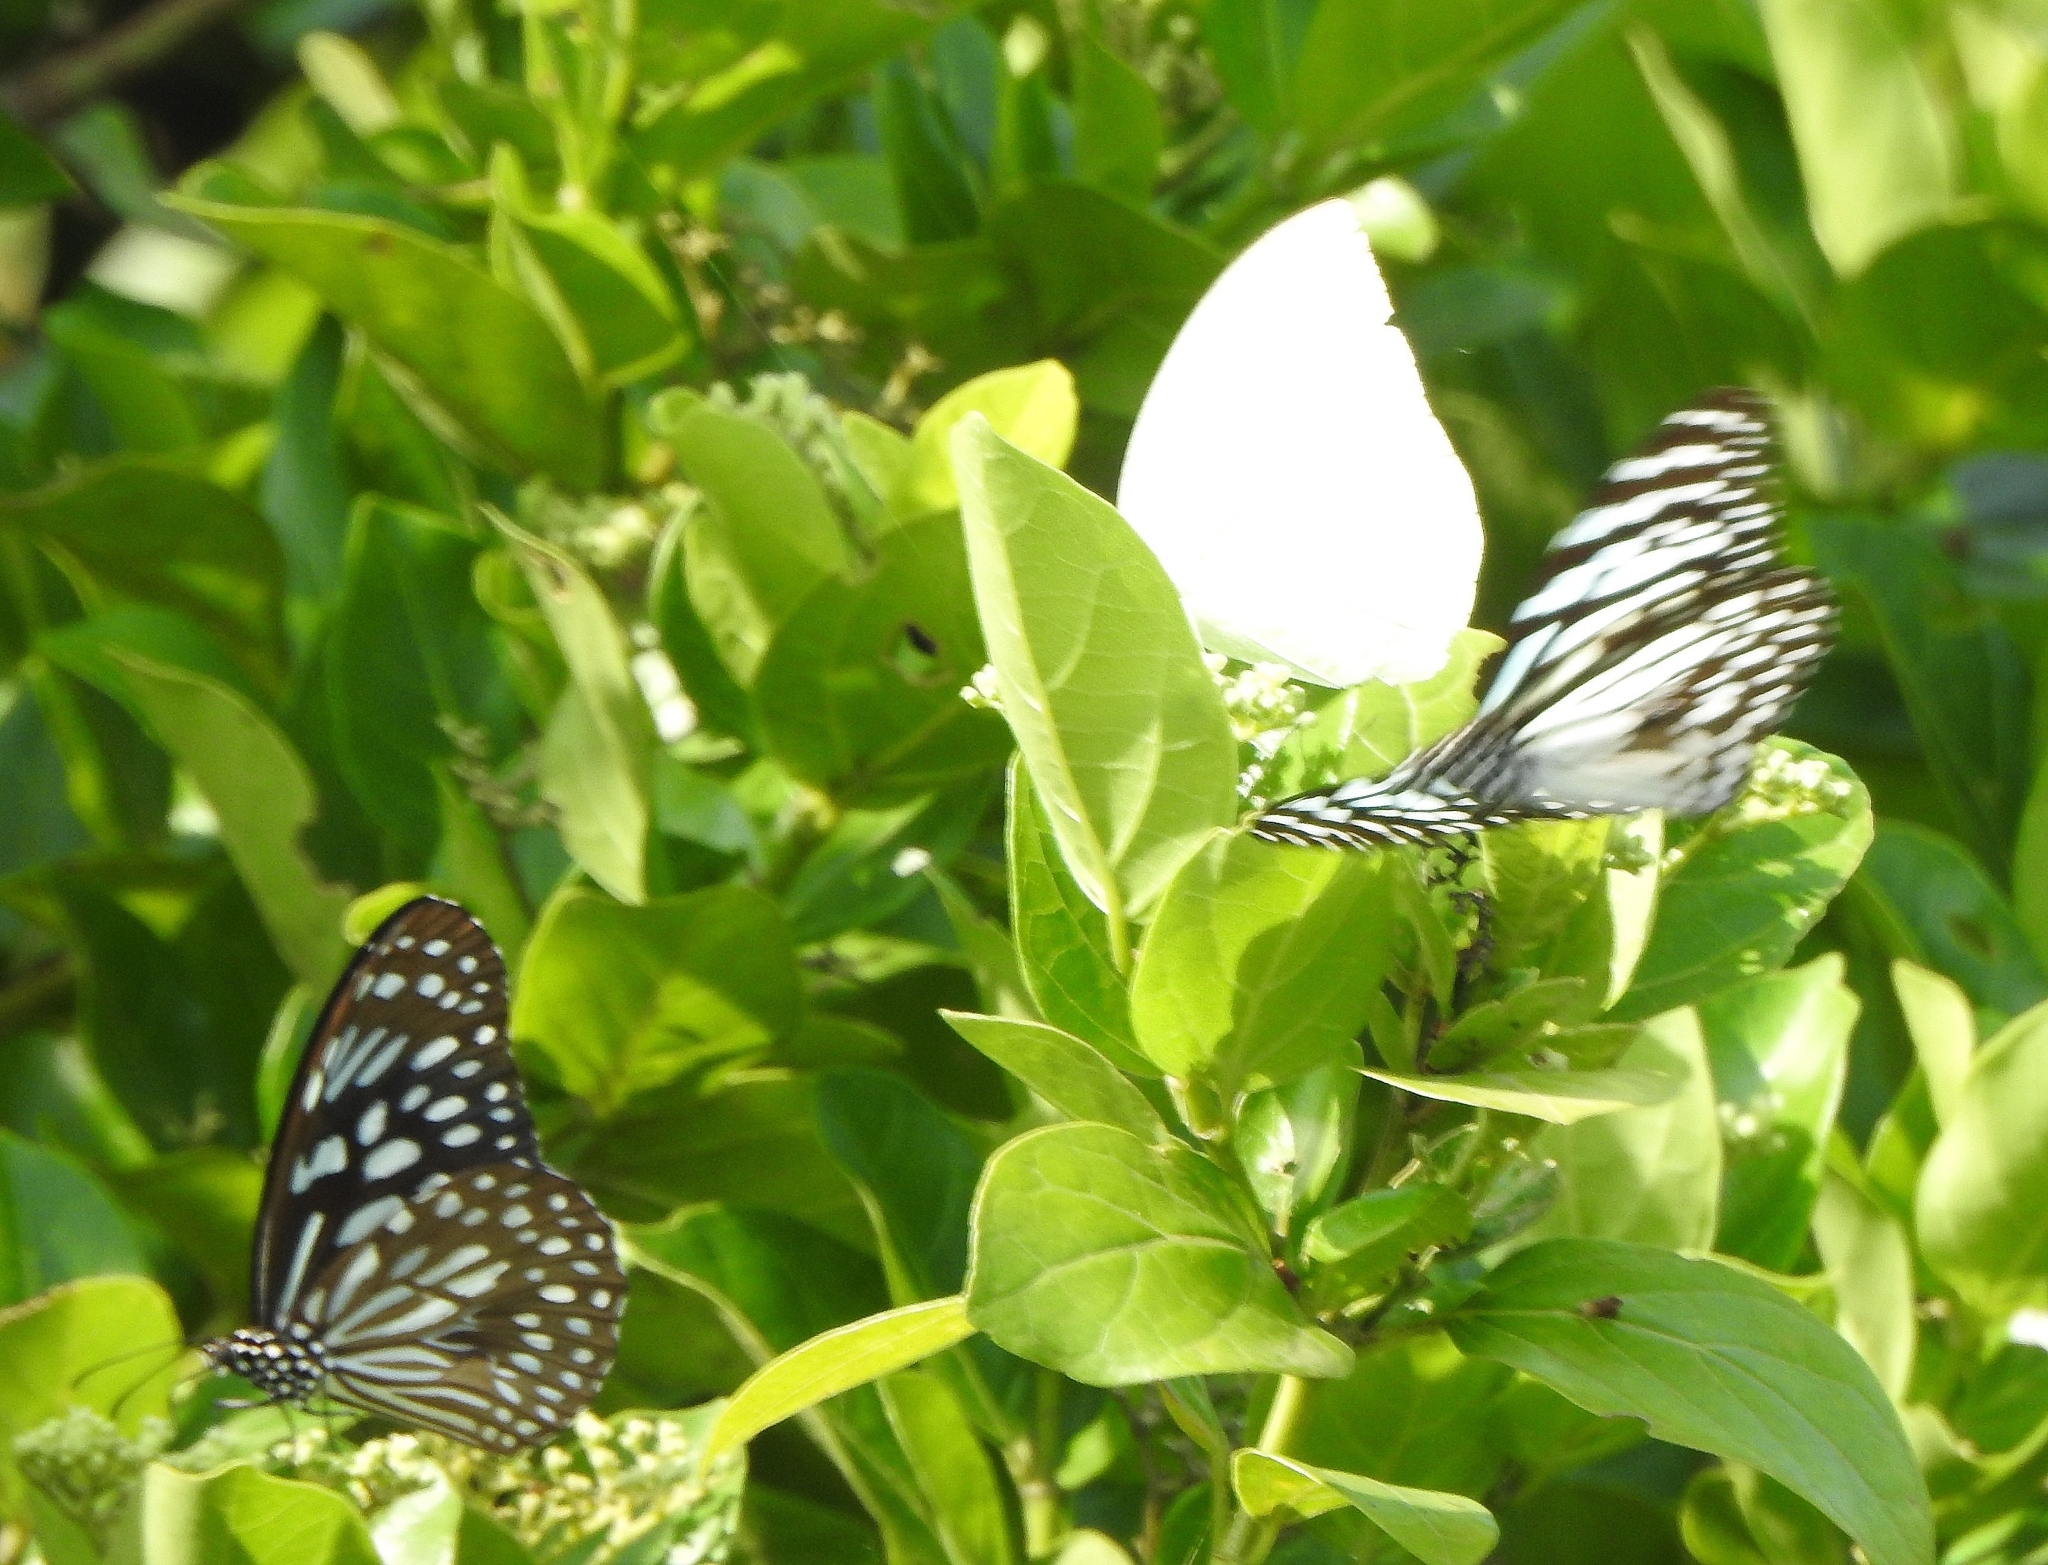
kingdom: Animalia
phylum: Arthropoda
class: Insecta
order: Lepidoptera
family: Nymphalidae
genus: Tirumala
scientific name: Tirumala septentrionis
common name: Dark blue tiger butterfly
